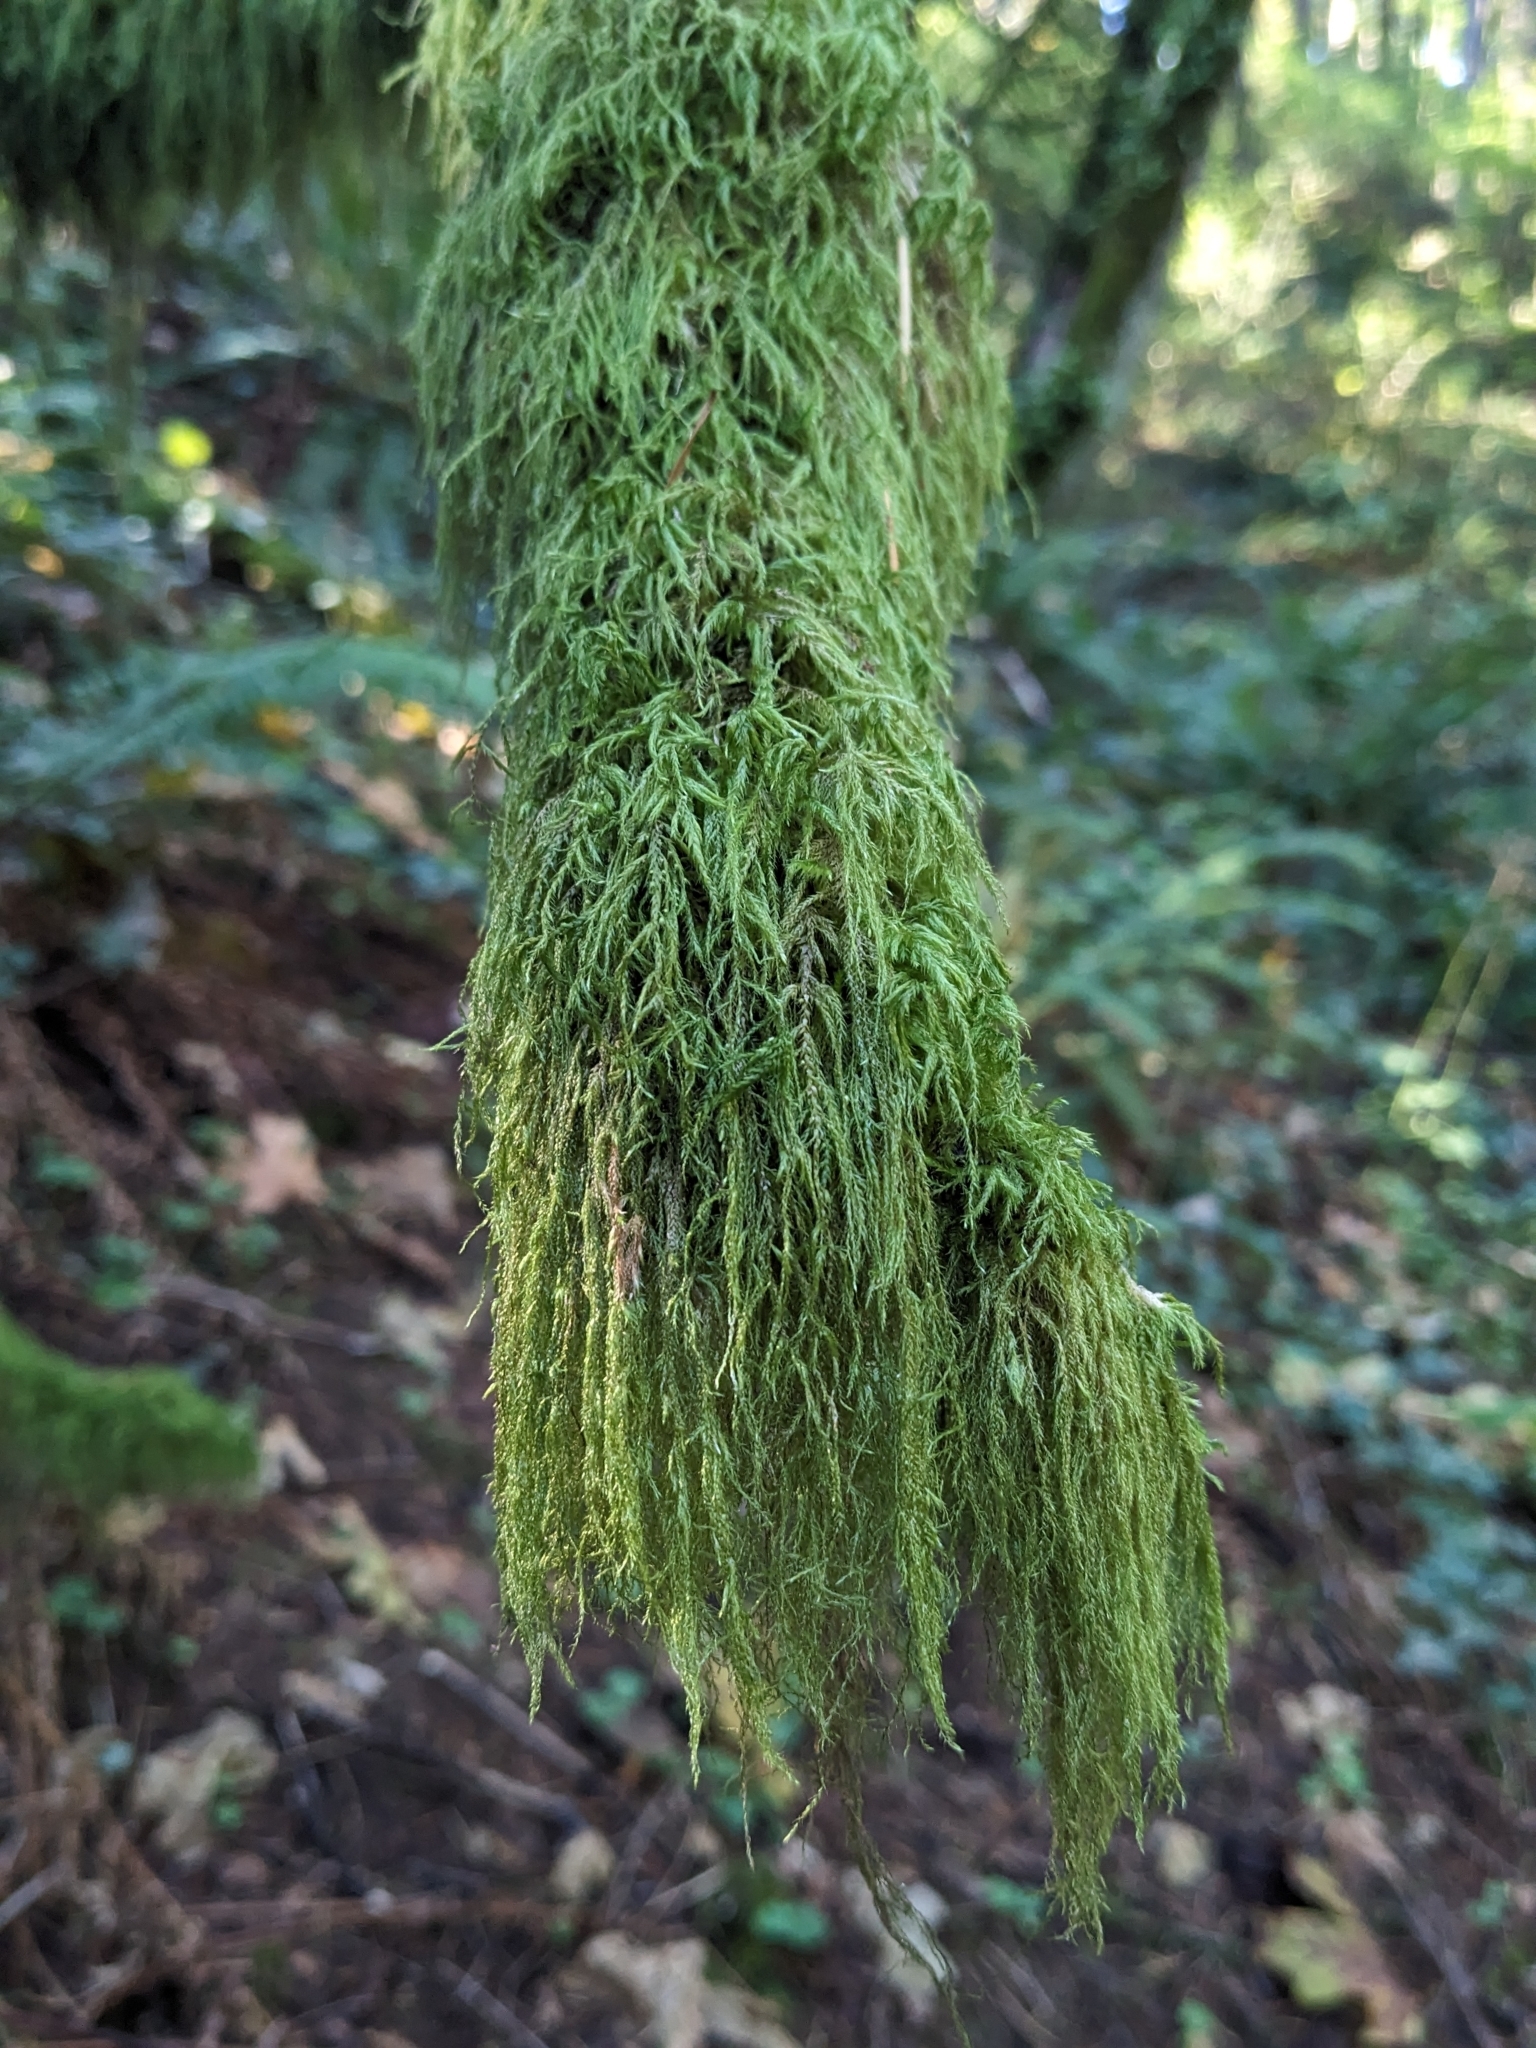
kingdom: Plantae
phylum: Bryophyta
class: Bryopsida
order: Hypnales
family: Lembophyllaceae
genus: Pseudisothecium
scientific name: Pseudisothecium stoloniferum
